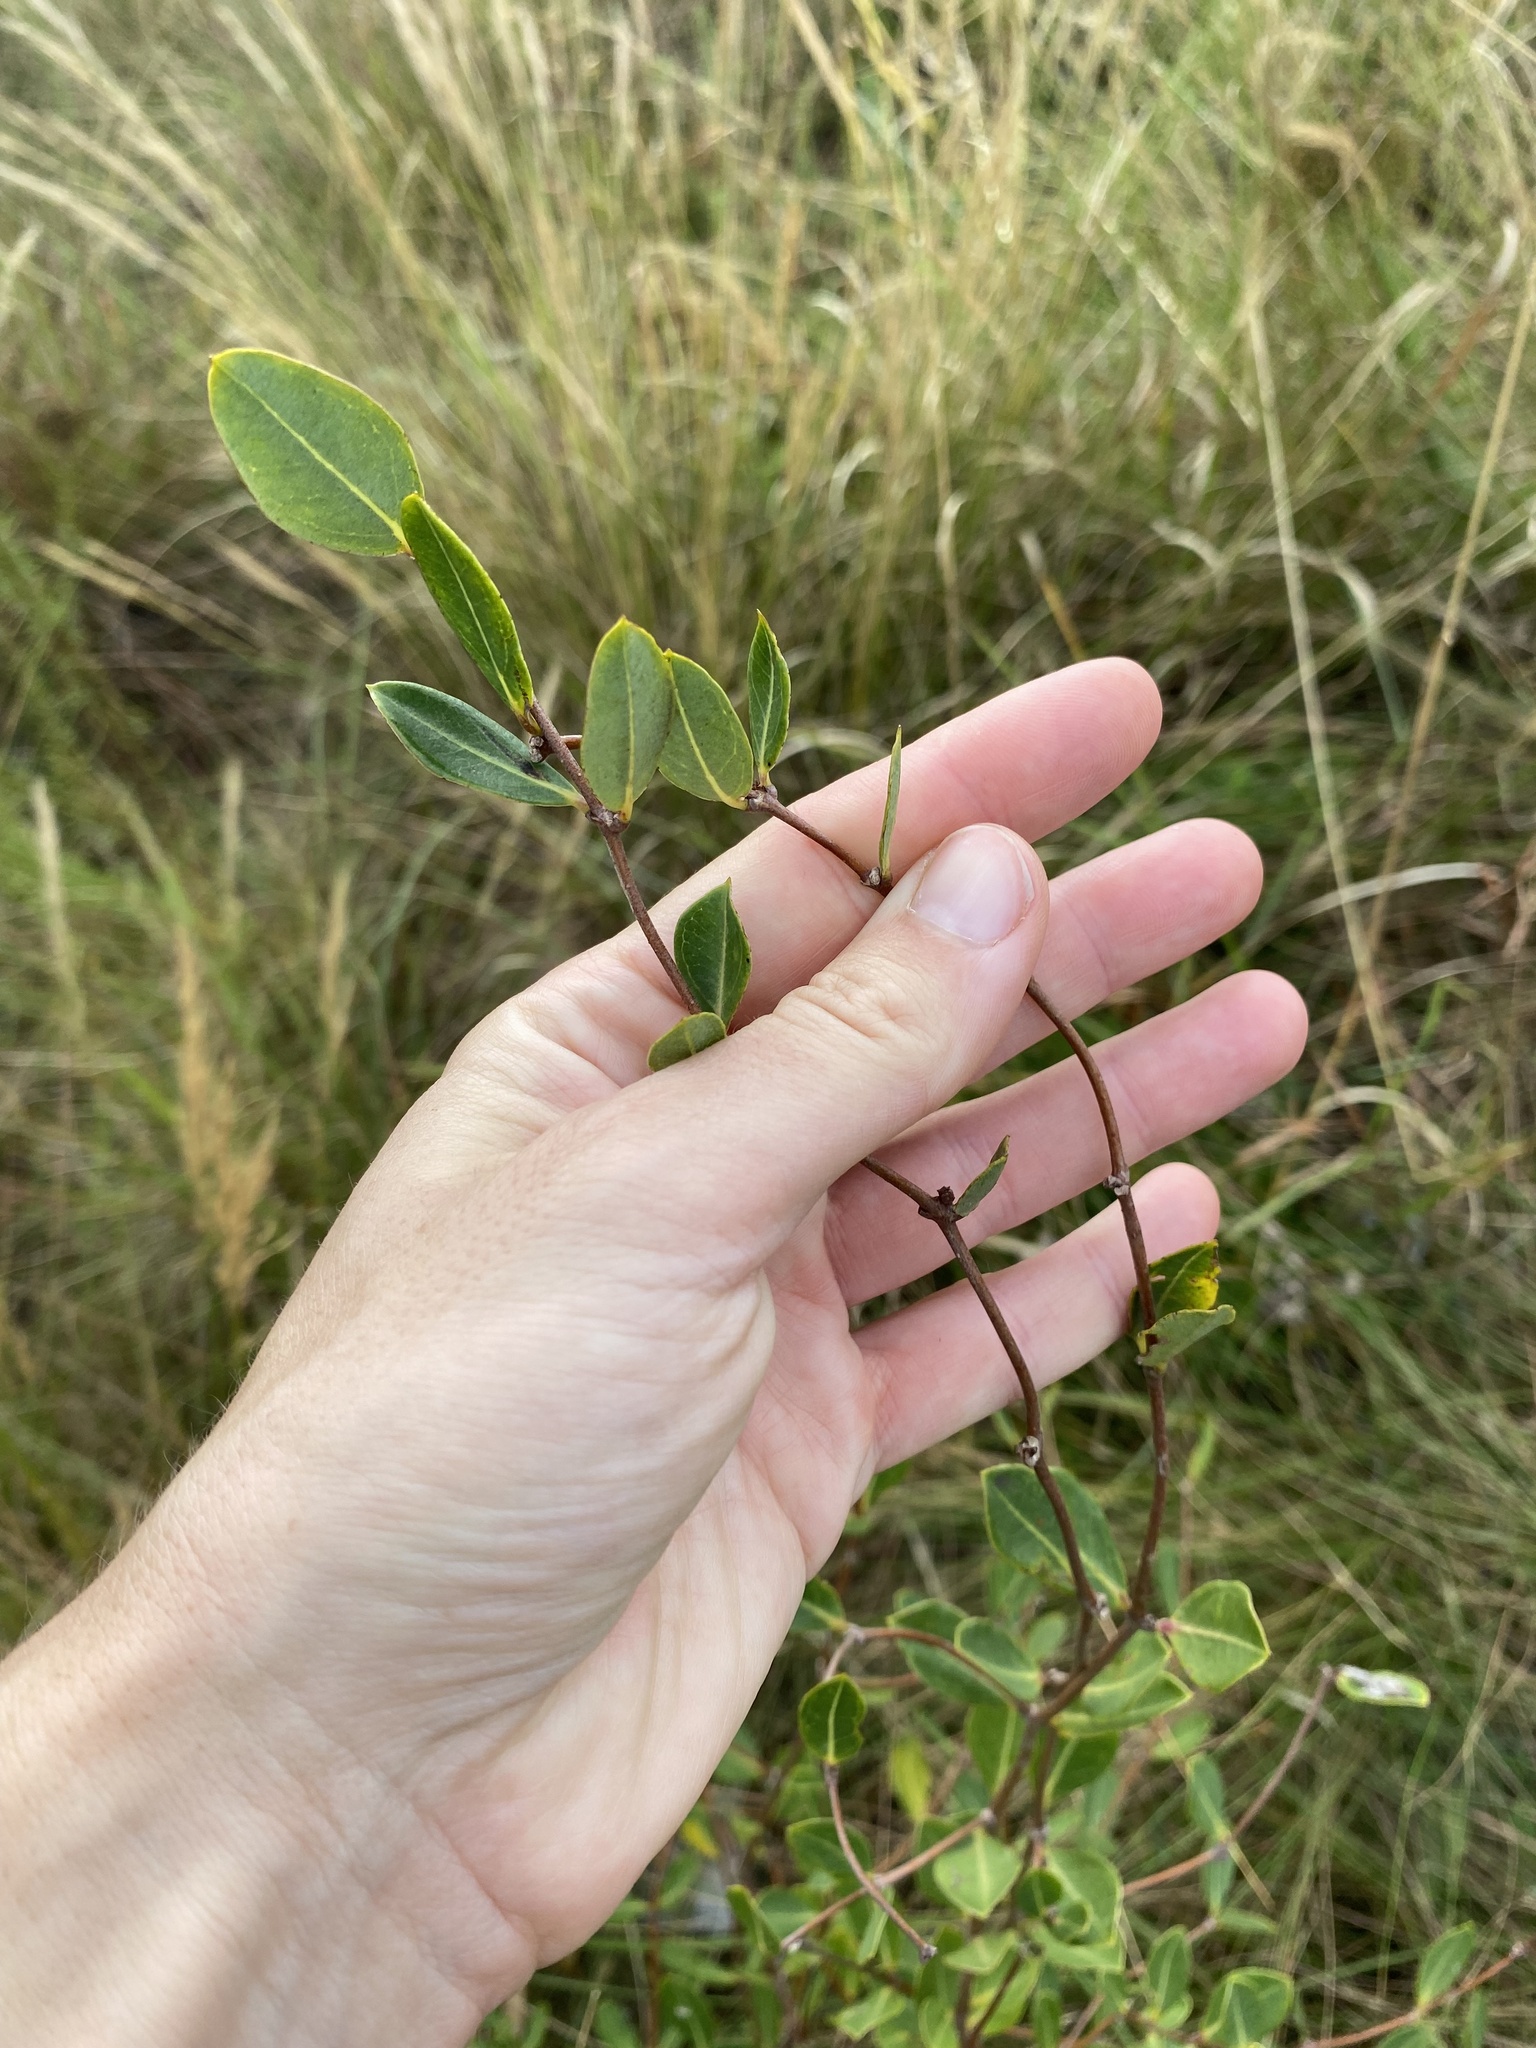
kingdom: Plantae
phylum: Tracheophyta
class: Magnoliopsida
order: Gentianales
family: Apocynaceae
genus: Cryptolepis
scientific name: Cryptolepis oblongifolia
